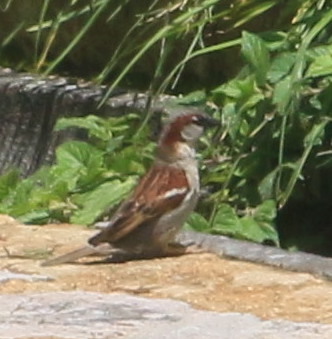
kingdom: Animalia
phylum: Chordata
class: Aves
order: Passeriformes
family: Passeridae
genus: Passer
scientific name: Passer domesticus
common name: House sparrow
